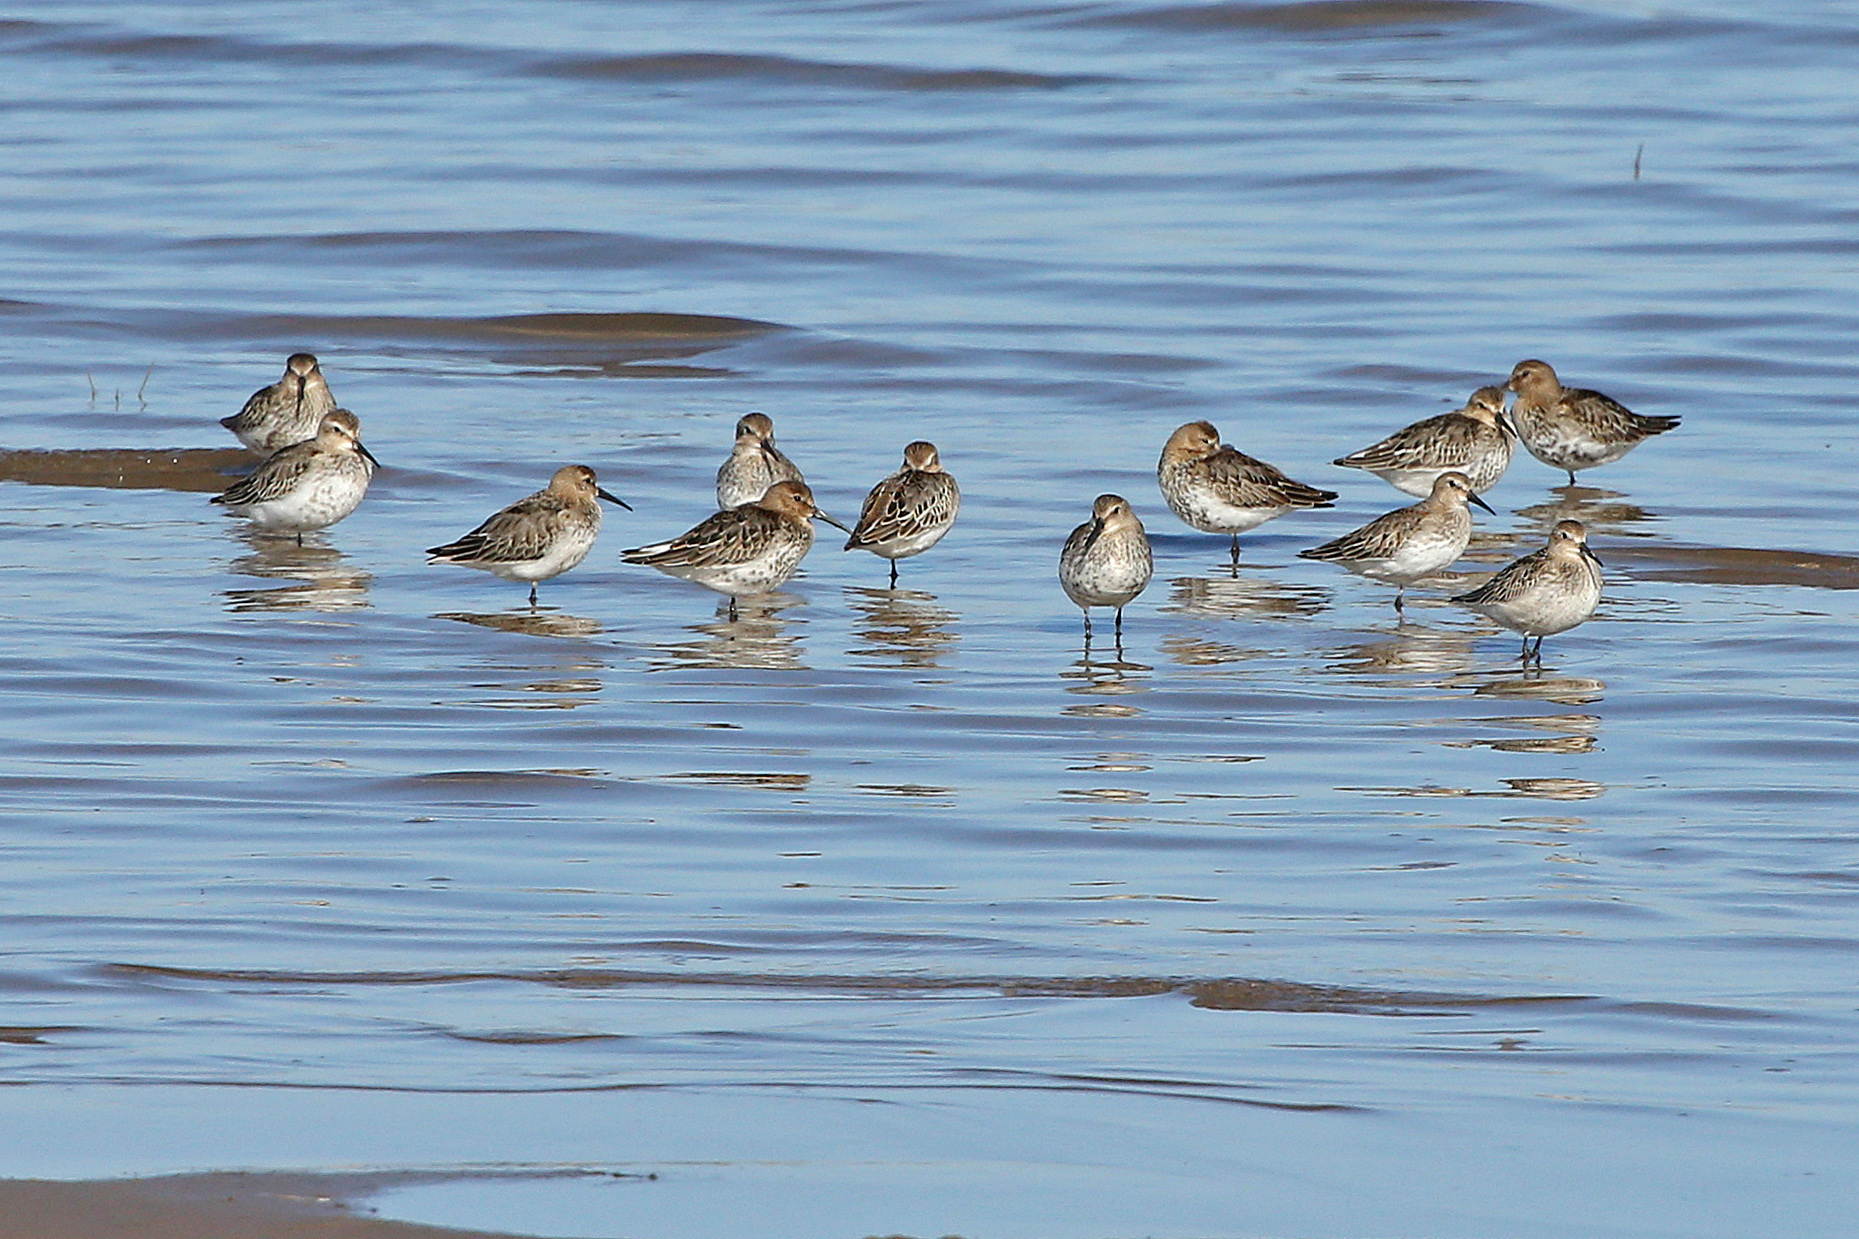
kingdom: Animalia
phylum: Chordata
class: Aves
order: Charadriiformes
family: Scolopacidae
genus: Calidris
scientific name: Calidris alpina
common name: Dunlin
